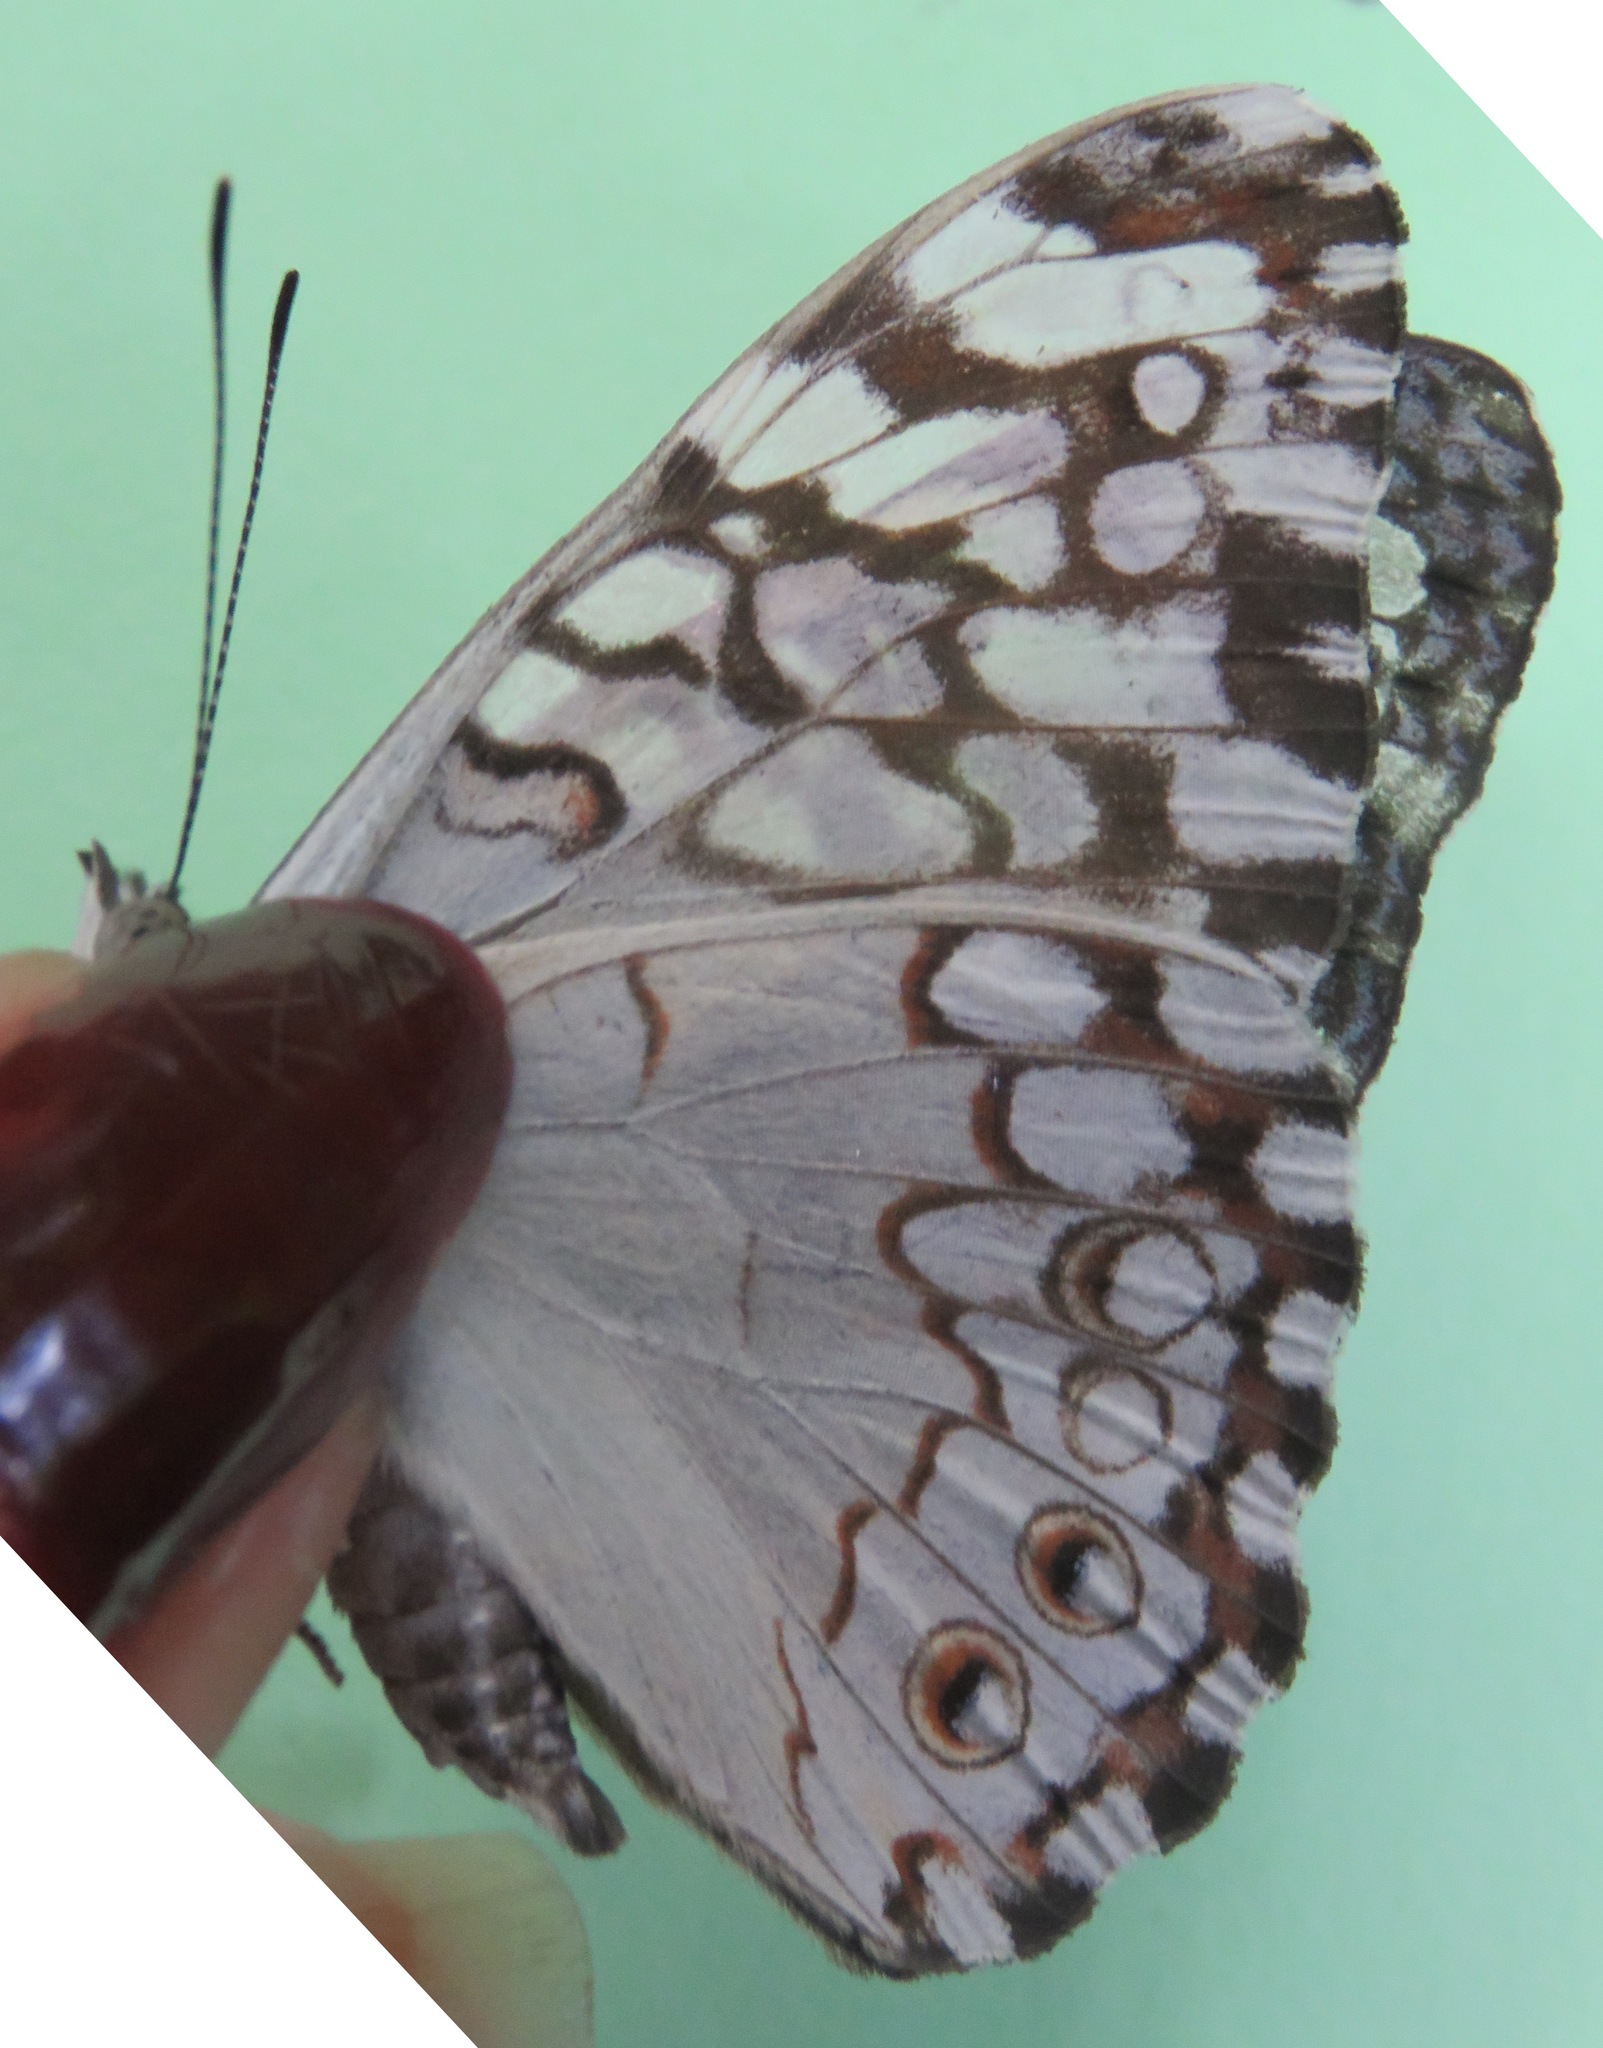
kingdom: Animalia
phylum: Arthropoda
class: Insecta
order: Lepidoptera
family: Nymphalidae
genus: Hamadryas
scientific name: Hamadryas februa
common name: Gray cracker
